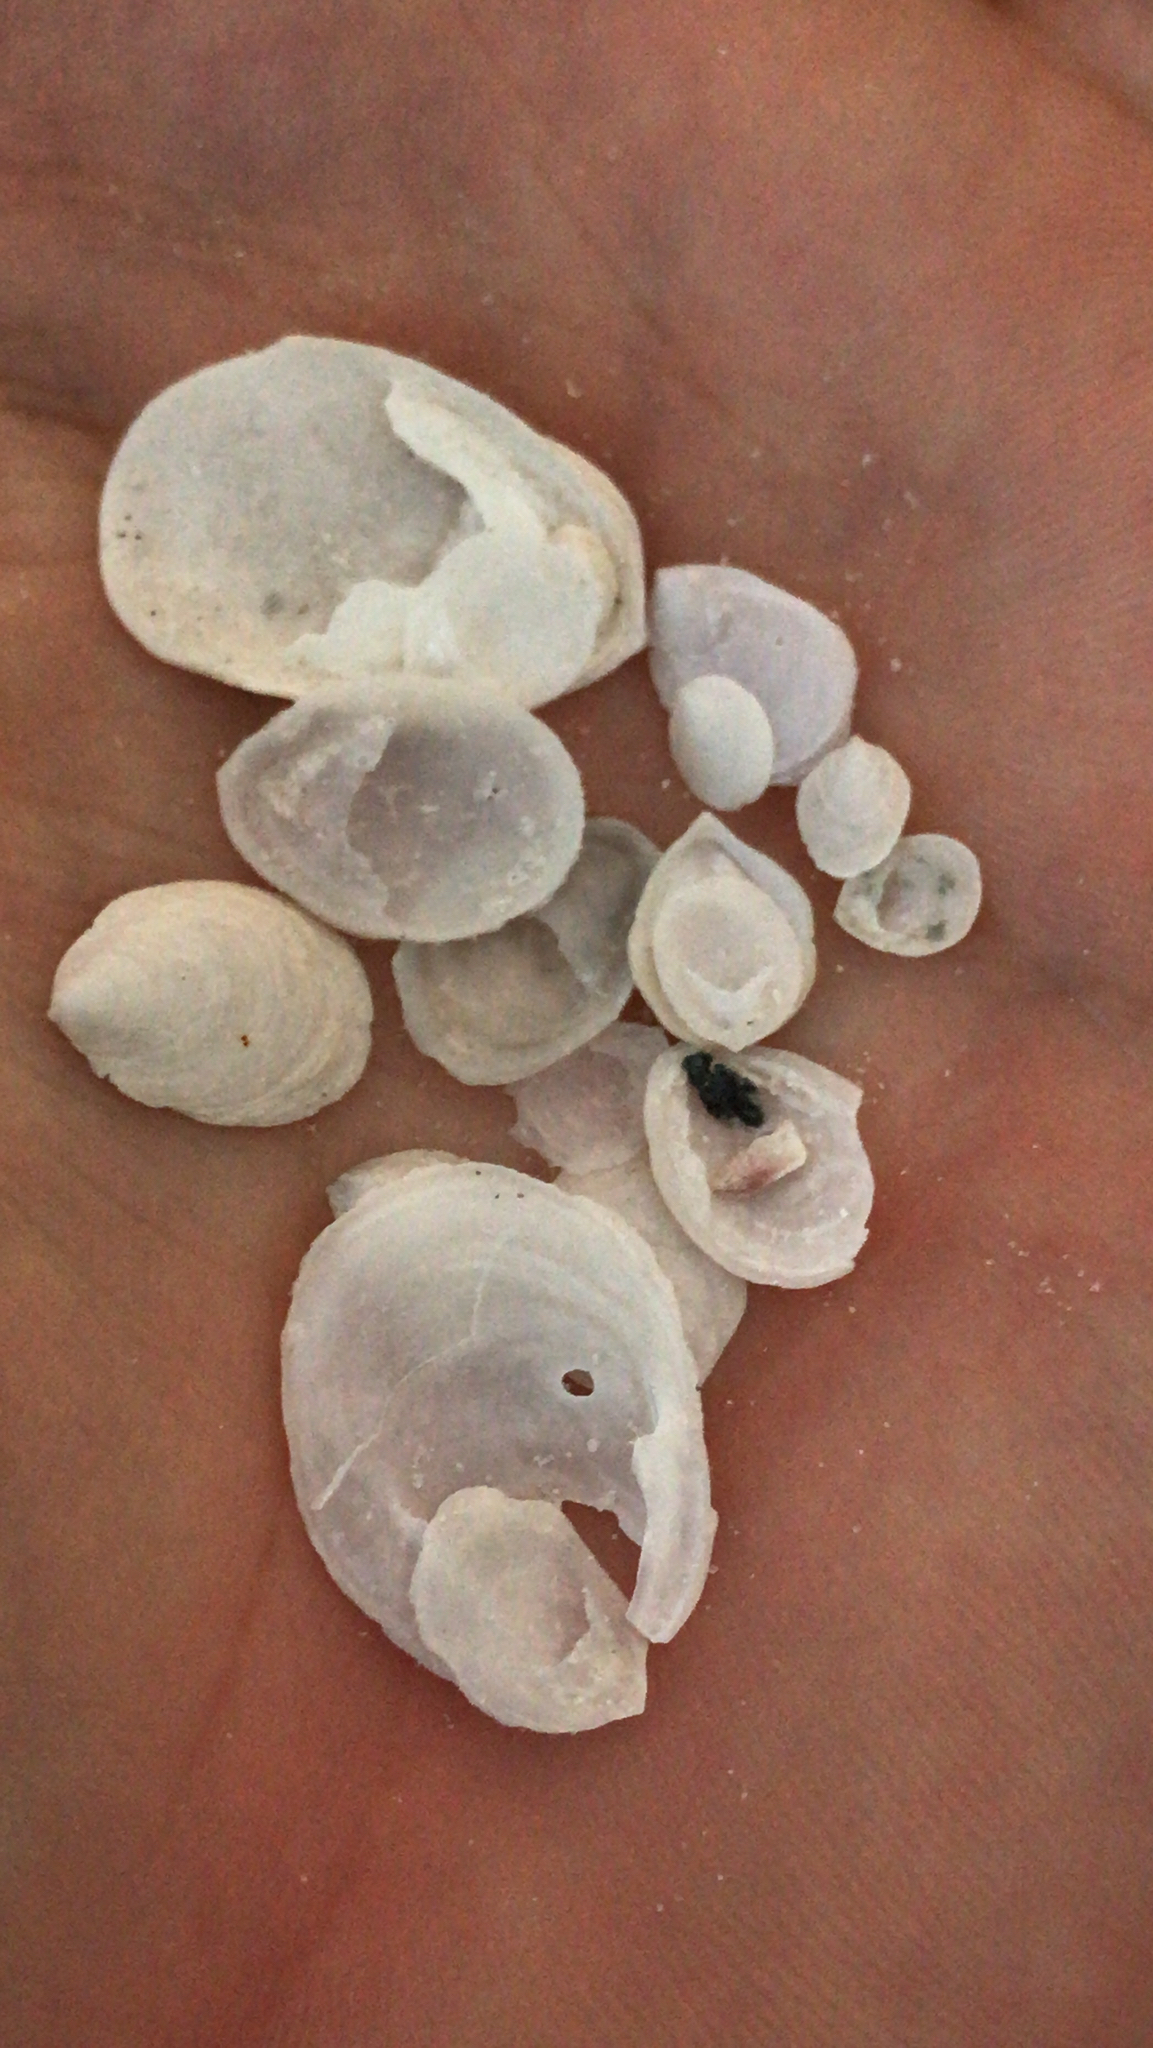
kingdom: Animalia
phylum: Mollusca
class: Gastropoda
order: Littorinimorpha
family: Calyptraeidae
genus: Crepidula
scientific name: Crepidula
